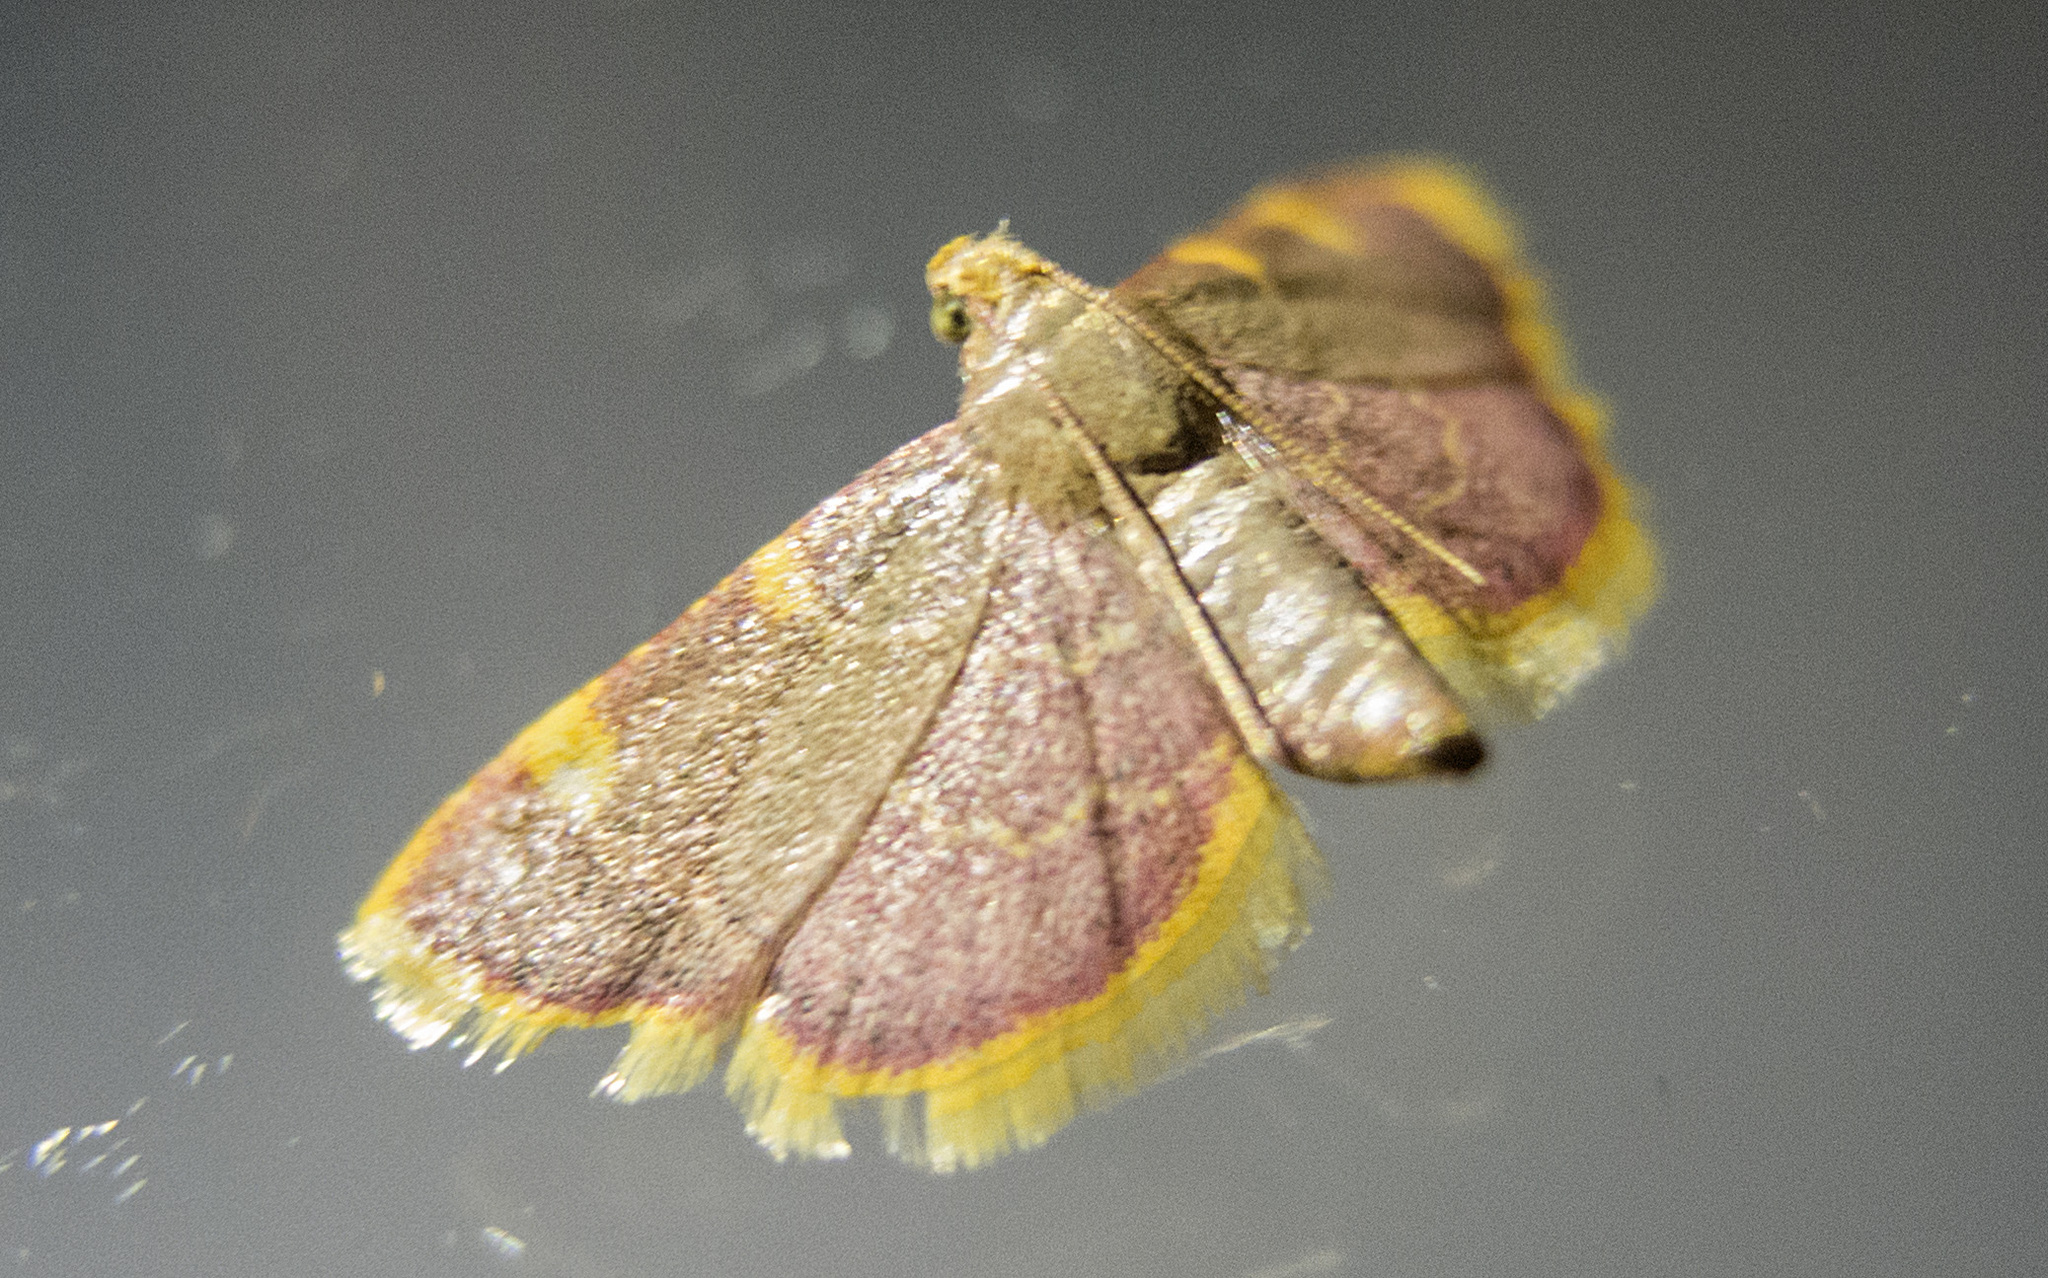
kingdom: Animalia
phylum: Arthropoda
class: Insecta
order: Lepidoptera
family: Pyralidae
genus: Hypsopygia
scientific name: Hypsopygia costalis
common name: Gold triangle
